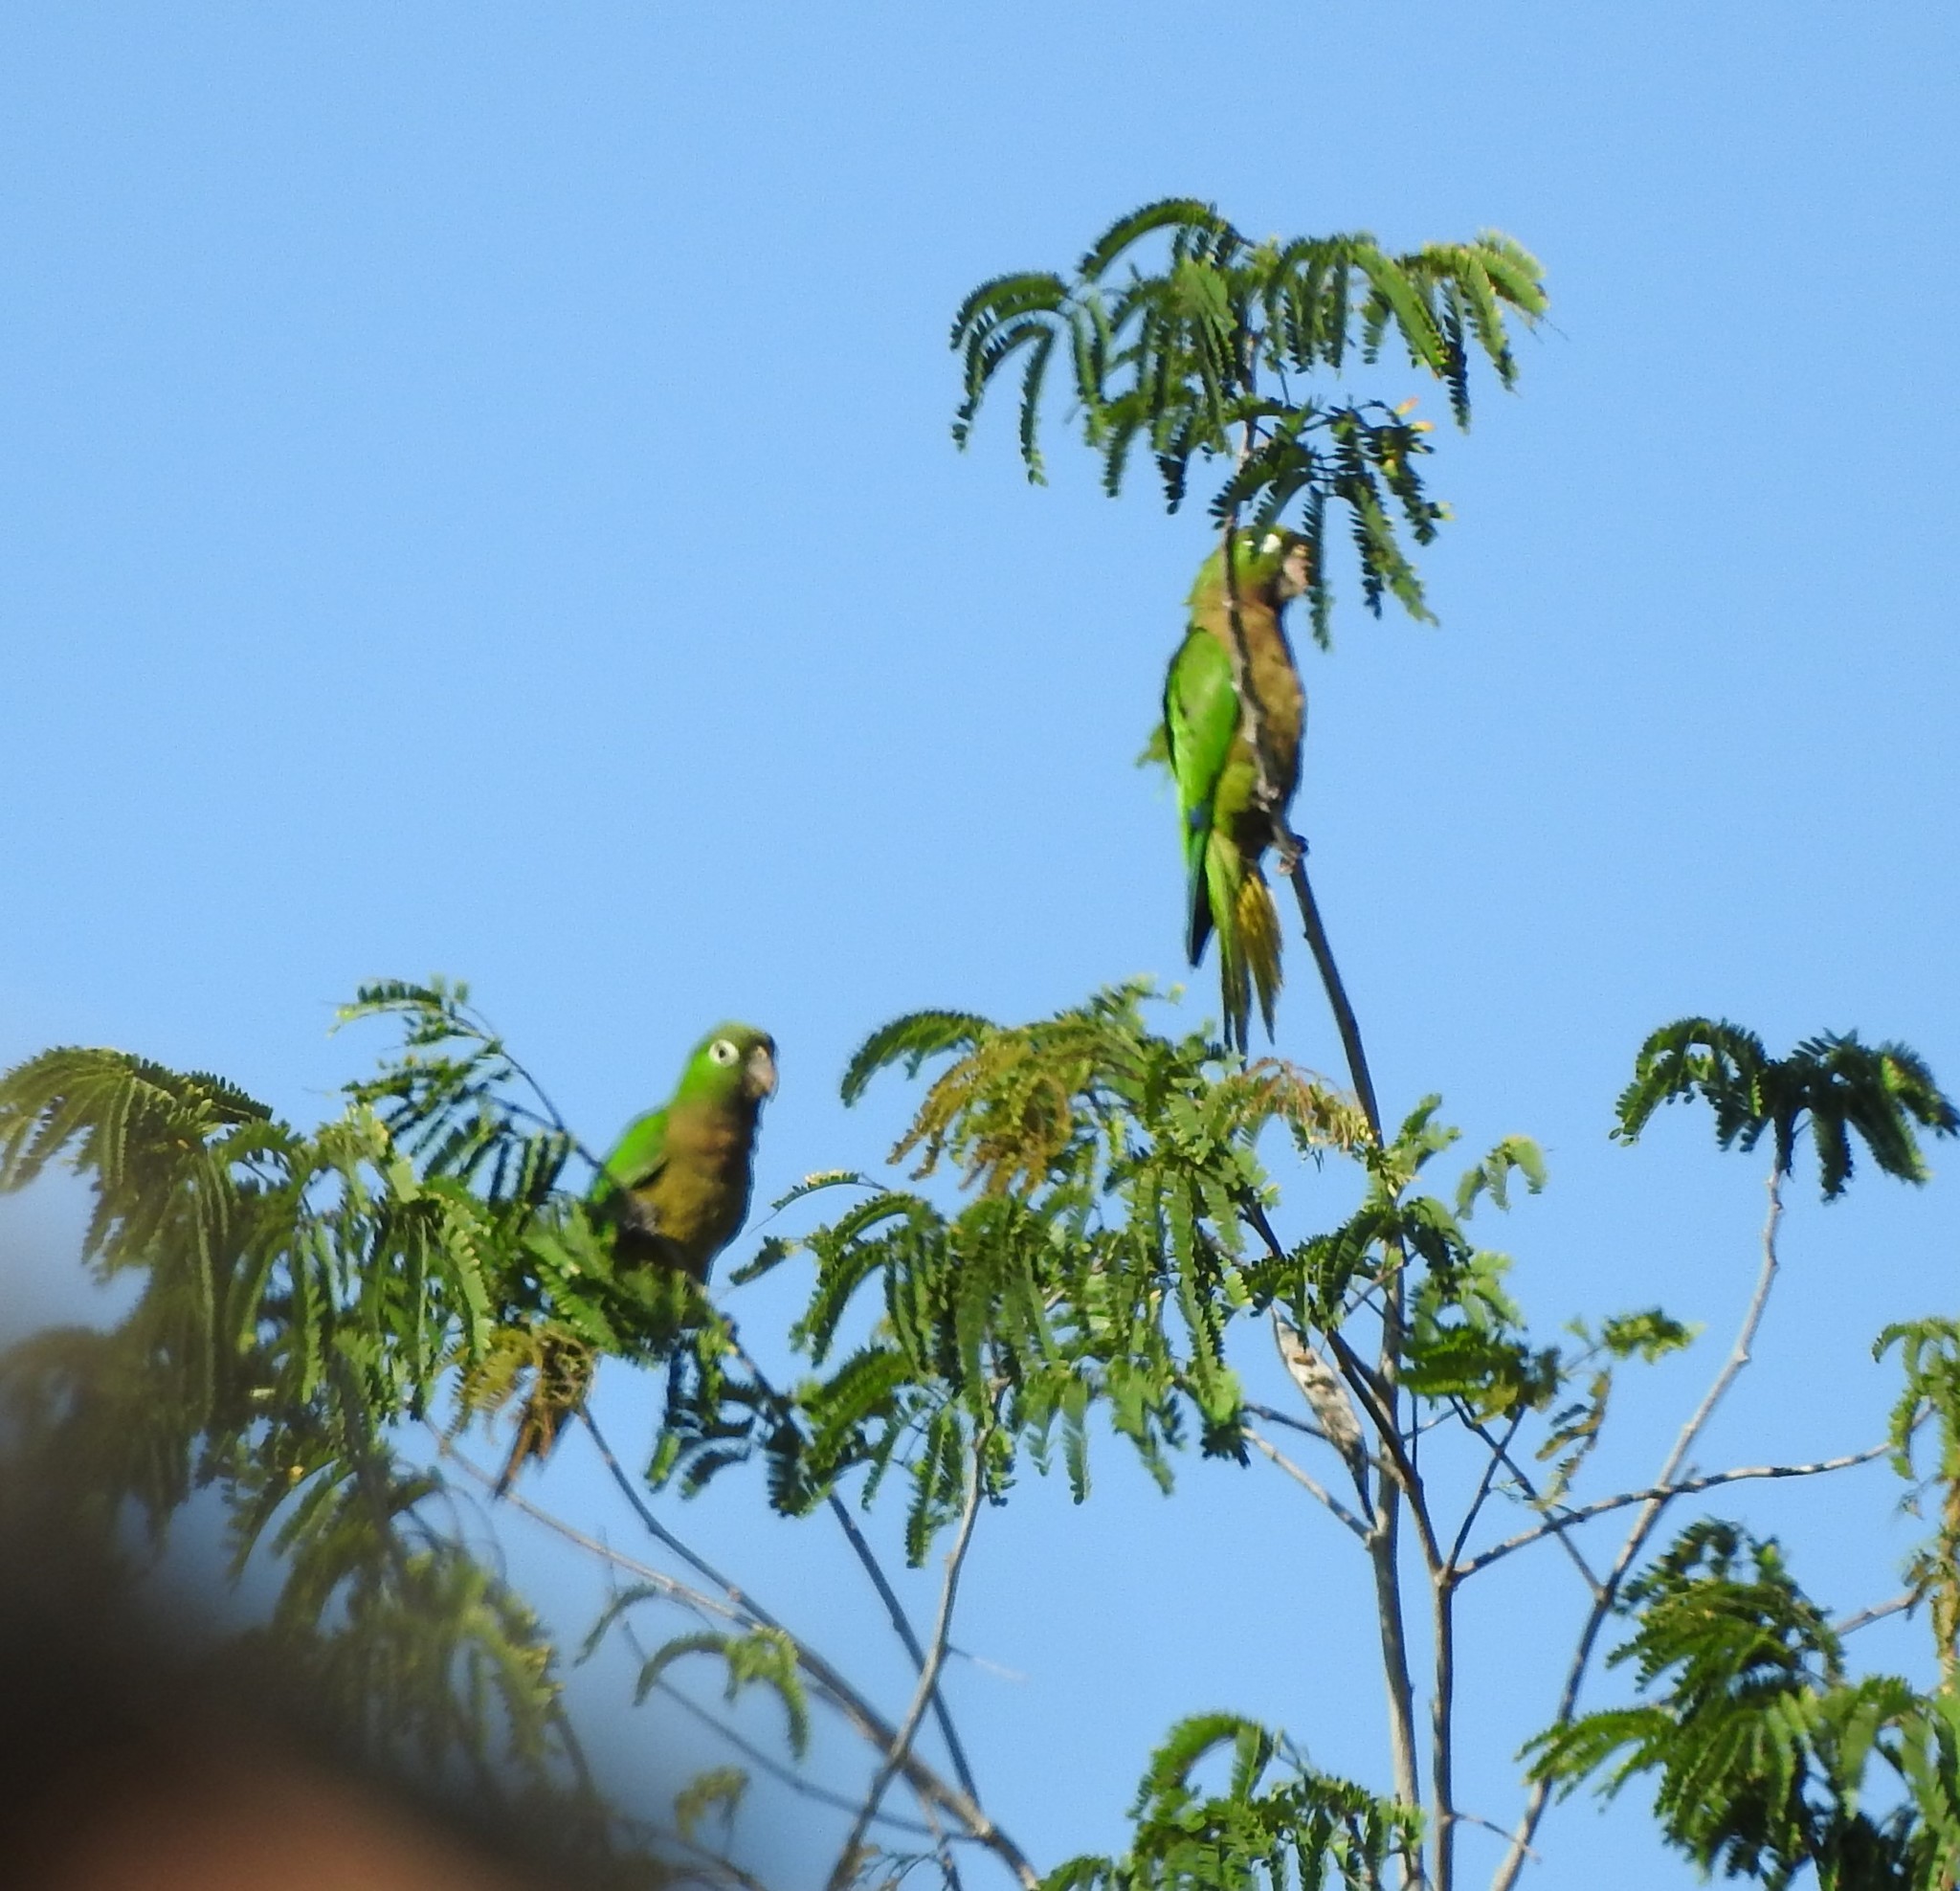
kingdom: Animalia
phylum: Chordata
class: Aves
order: Psittaciformes
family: Psittacidae
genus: Aratinga
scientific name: Aratinga nana
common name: Olive-throated parakeet
